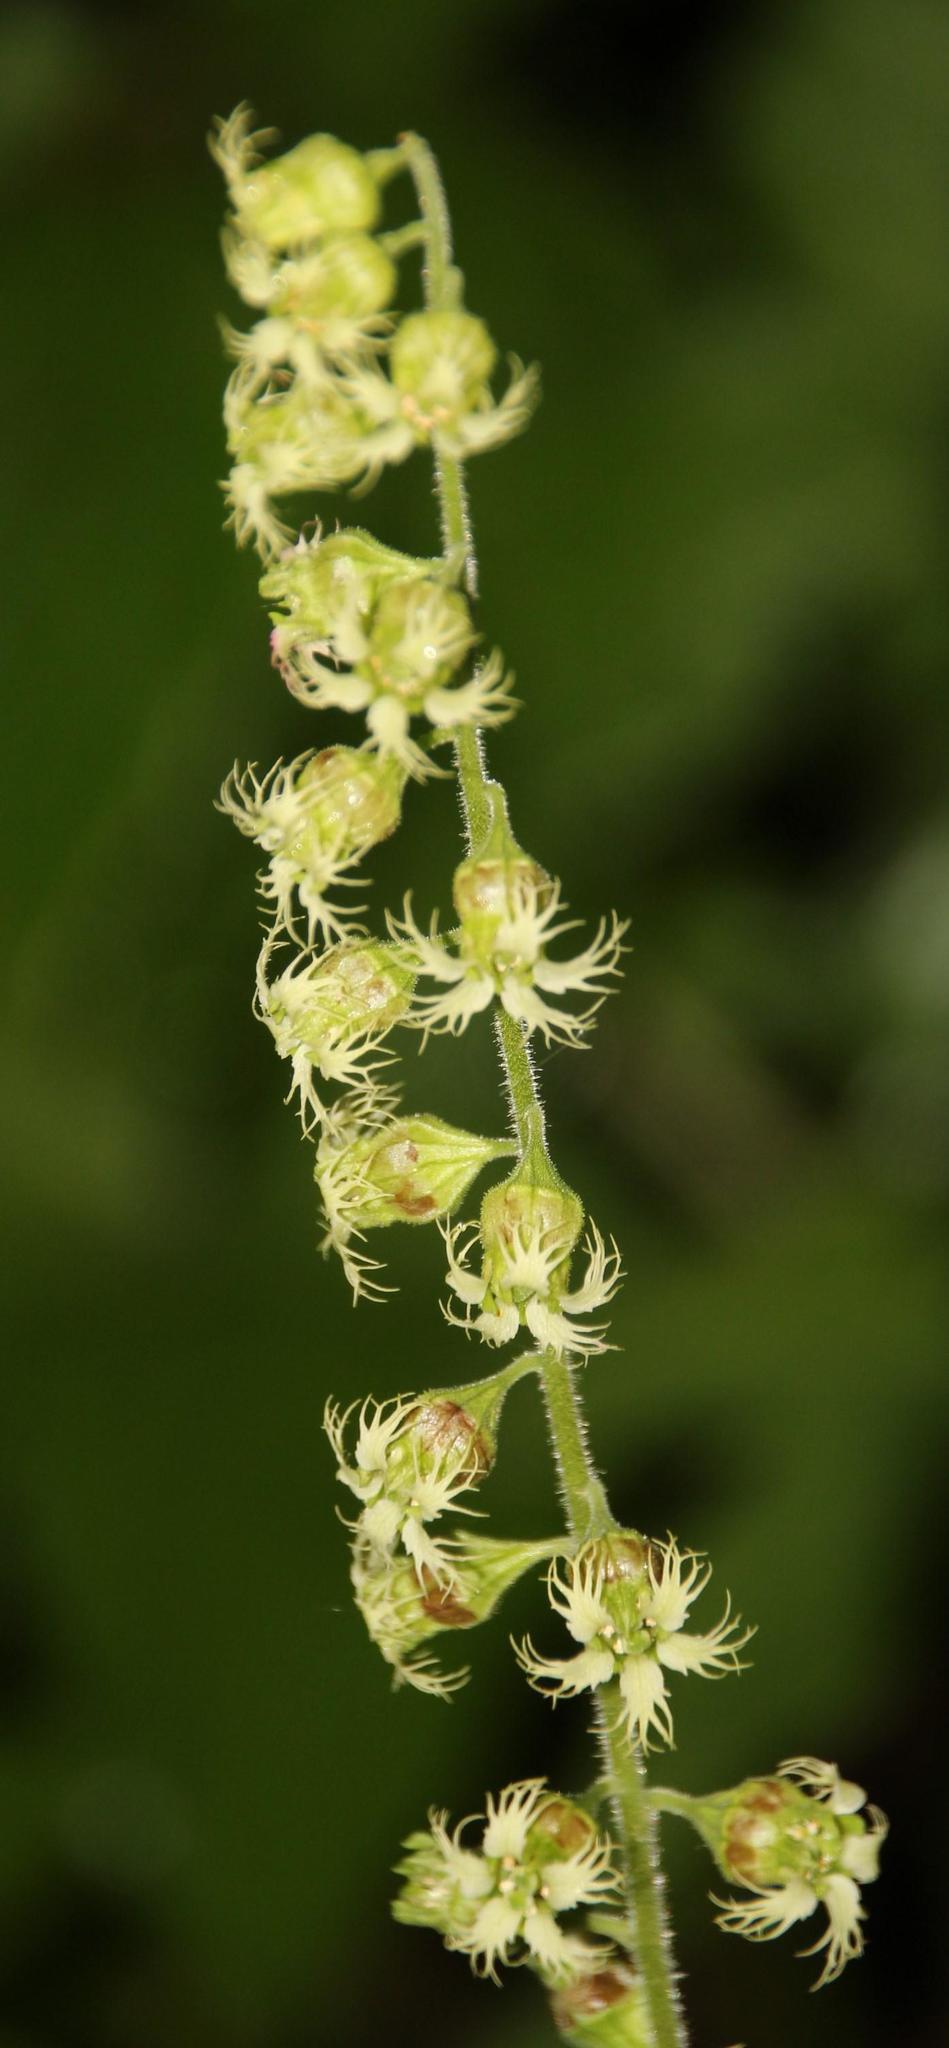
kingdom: Plantae
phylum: Tracheophyta
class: Magnoliopsida
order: Saxifragales
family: Saxifragaceae
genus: Tellima
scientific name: Tellima grandiflora
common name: Fringecups
